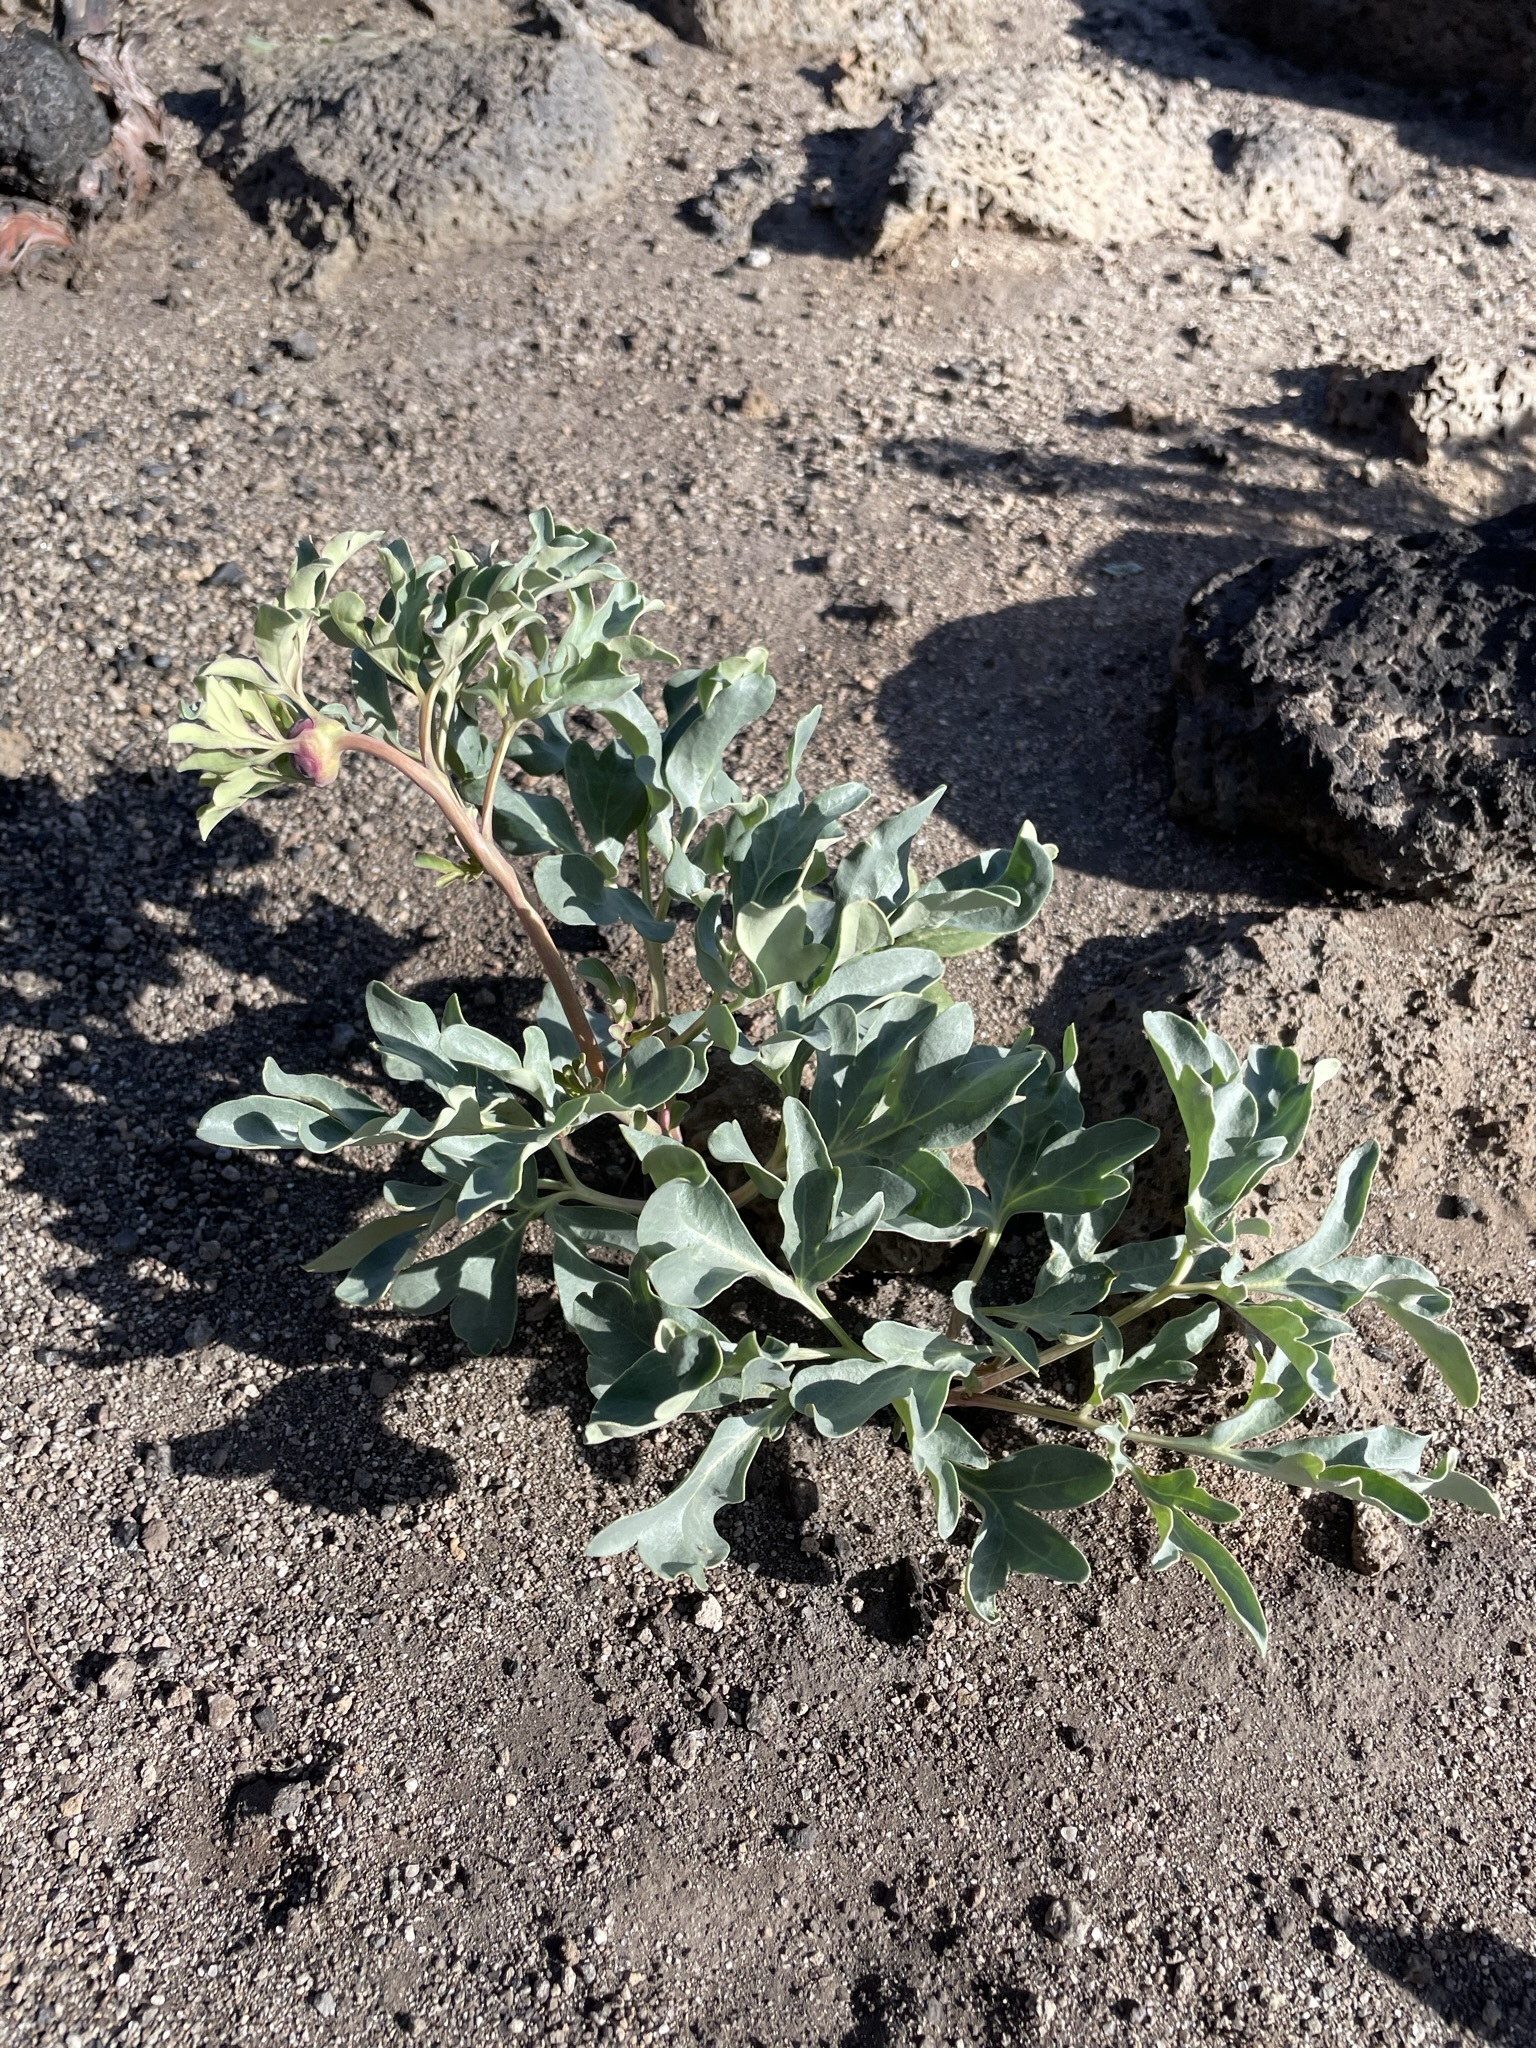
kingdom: Plantae
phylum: Tracheophyta
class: Magnoliopsida
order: Saxifragales
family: Paeoniaceae
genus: Paeonia
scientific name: Paeonia brownii
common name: Brown's peony
